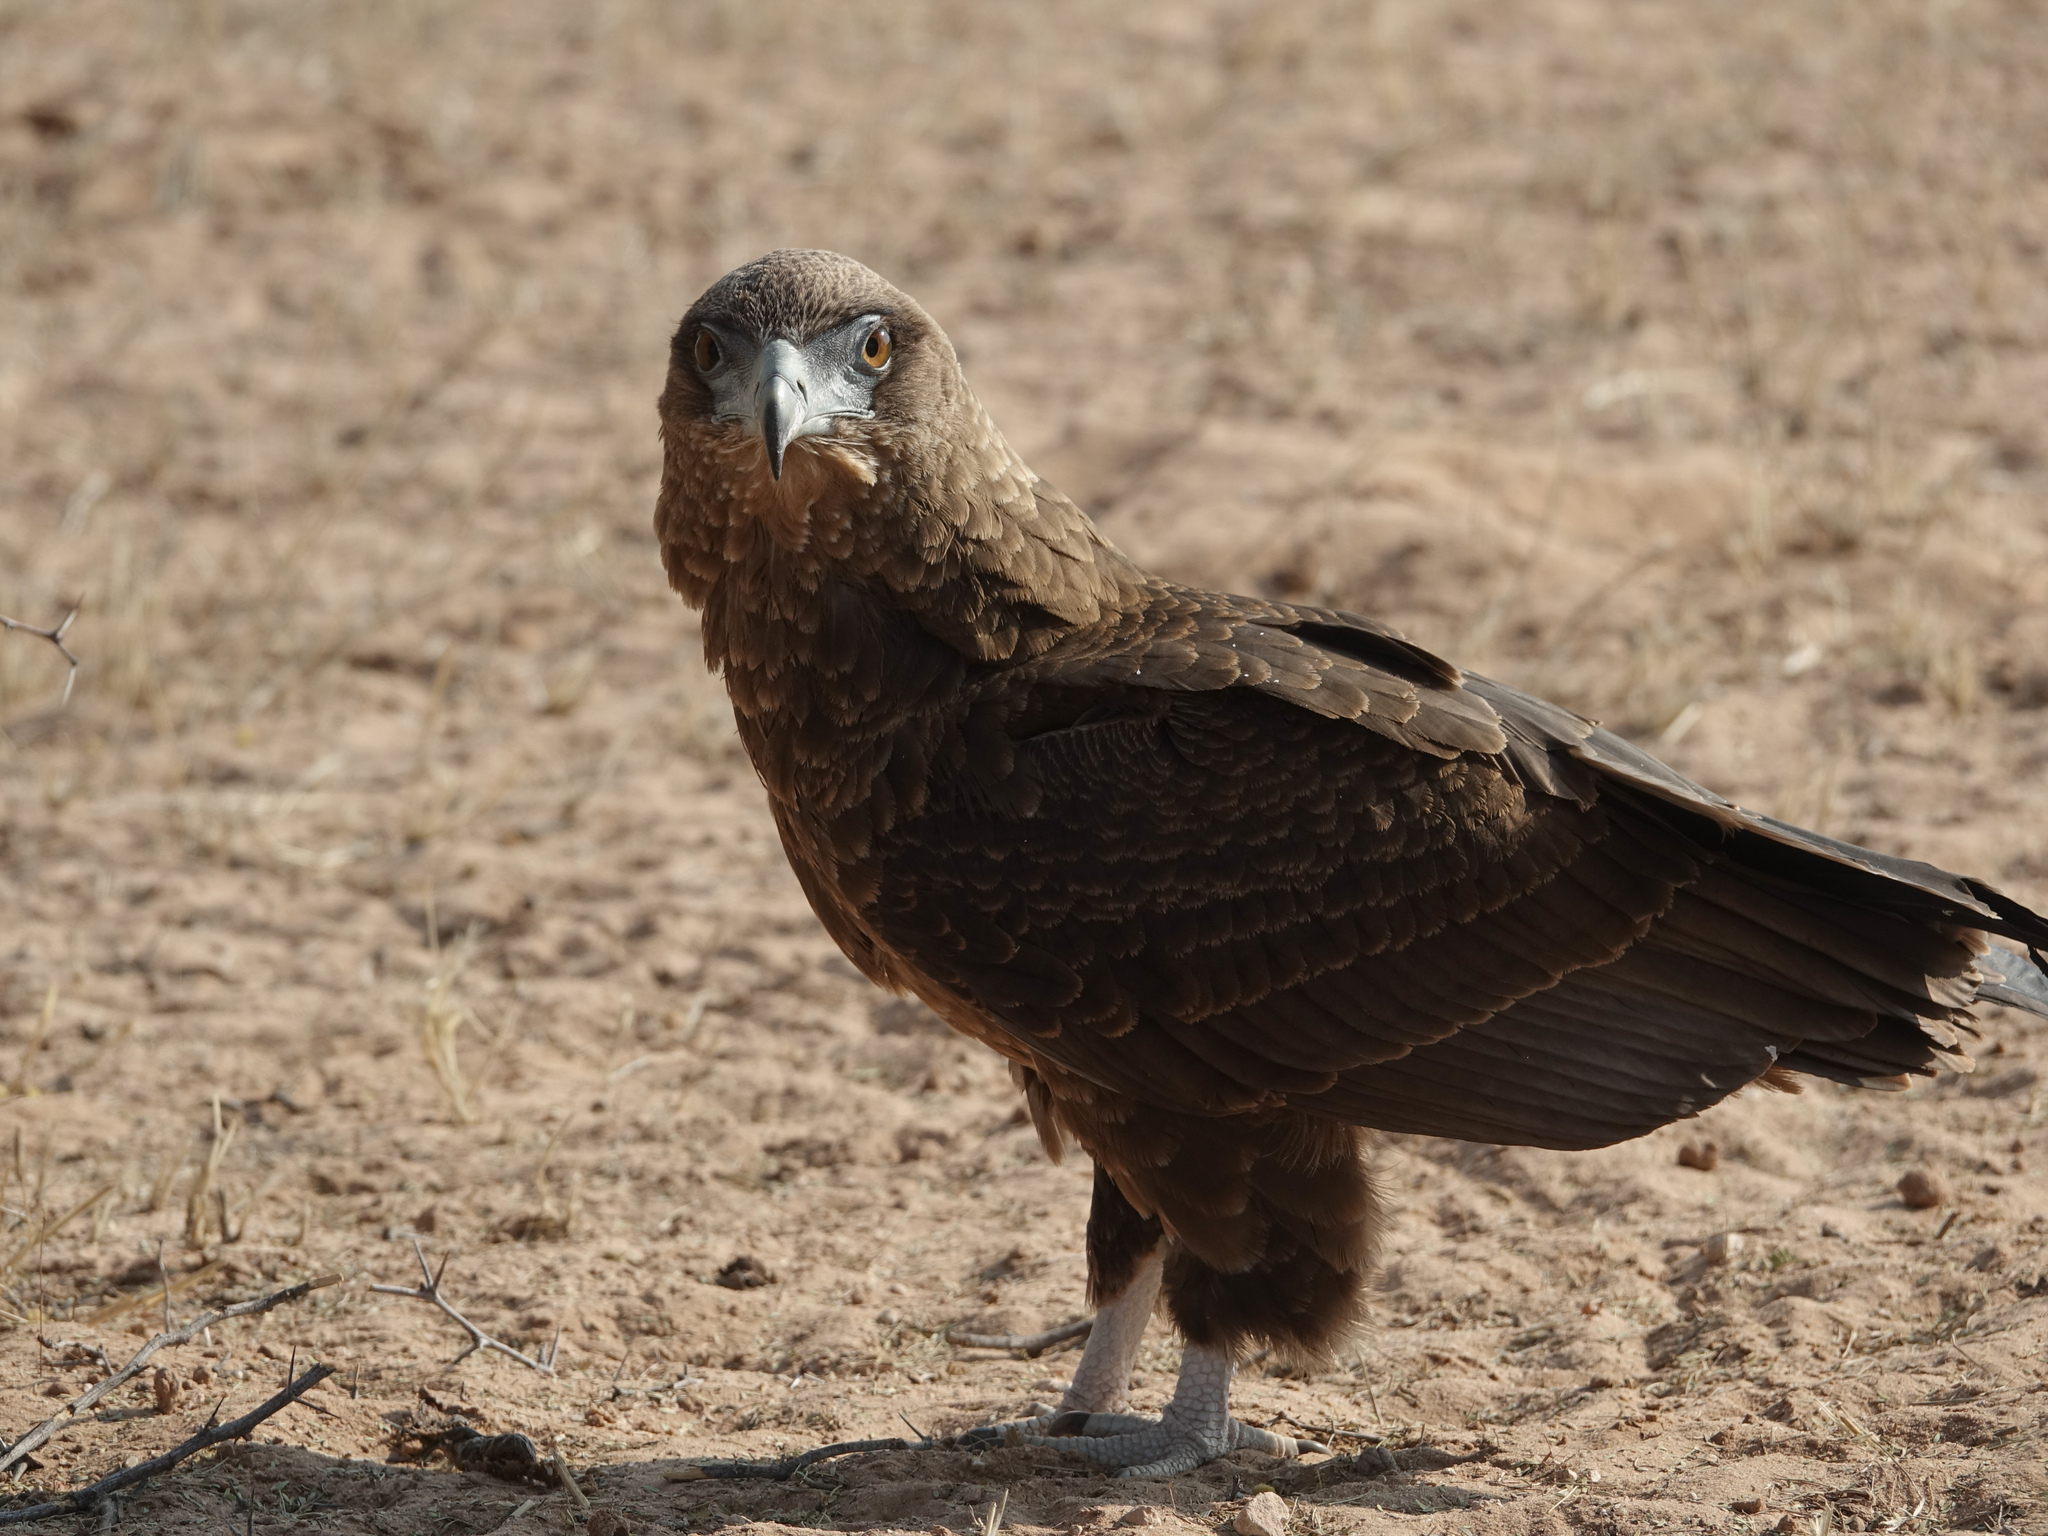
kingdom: Animalia
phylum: Chordata
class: Aves
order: Accipitriformes
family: Accipitridae
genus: Terathopius
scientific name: Terathopius ecaudatus
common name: Bateleur
